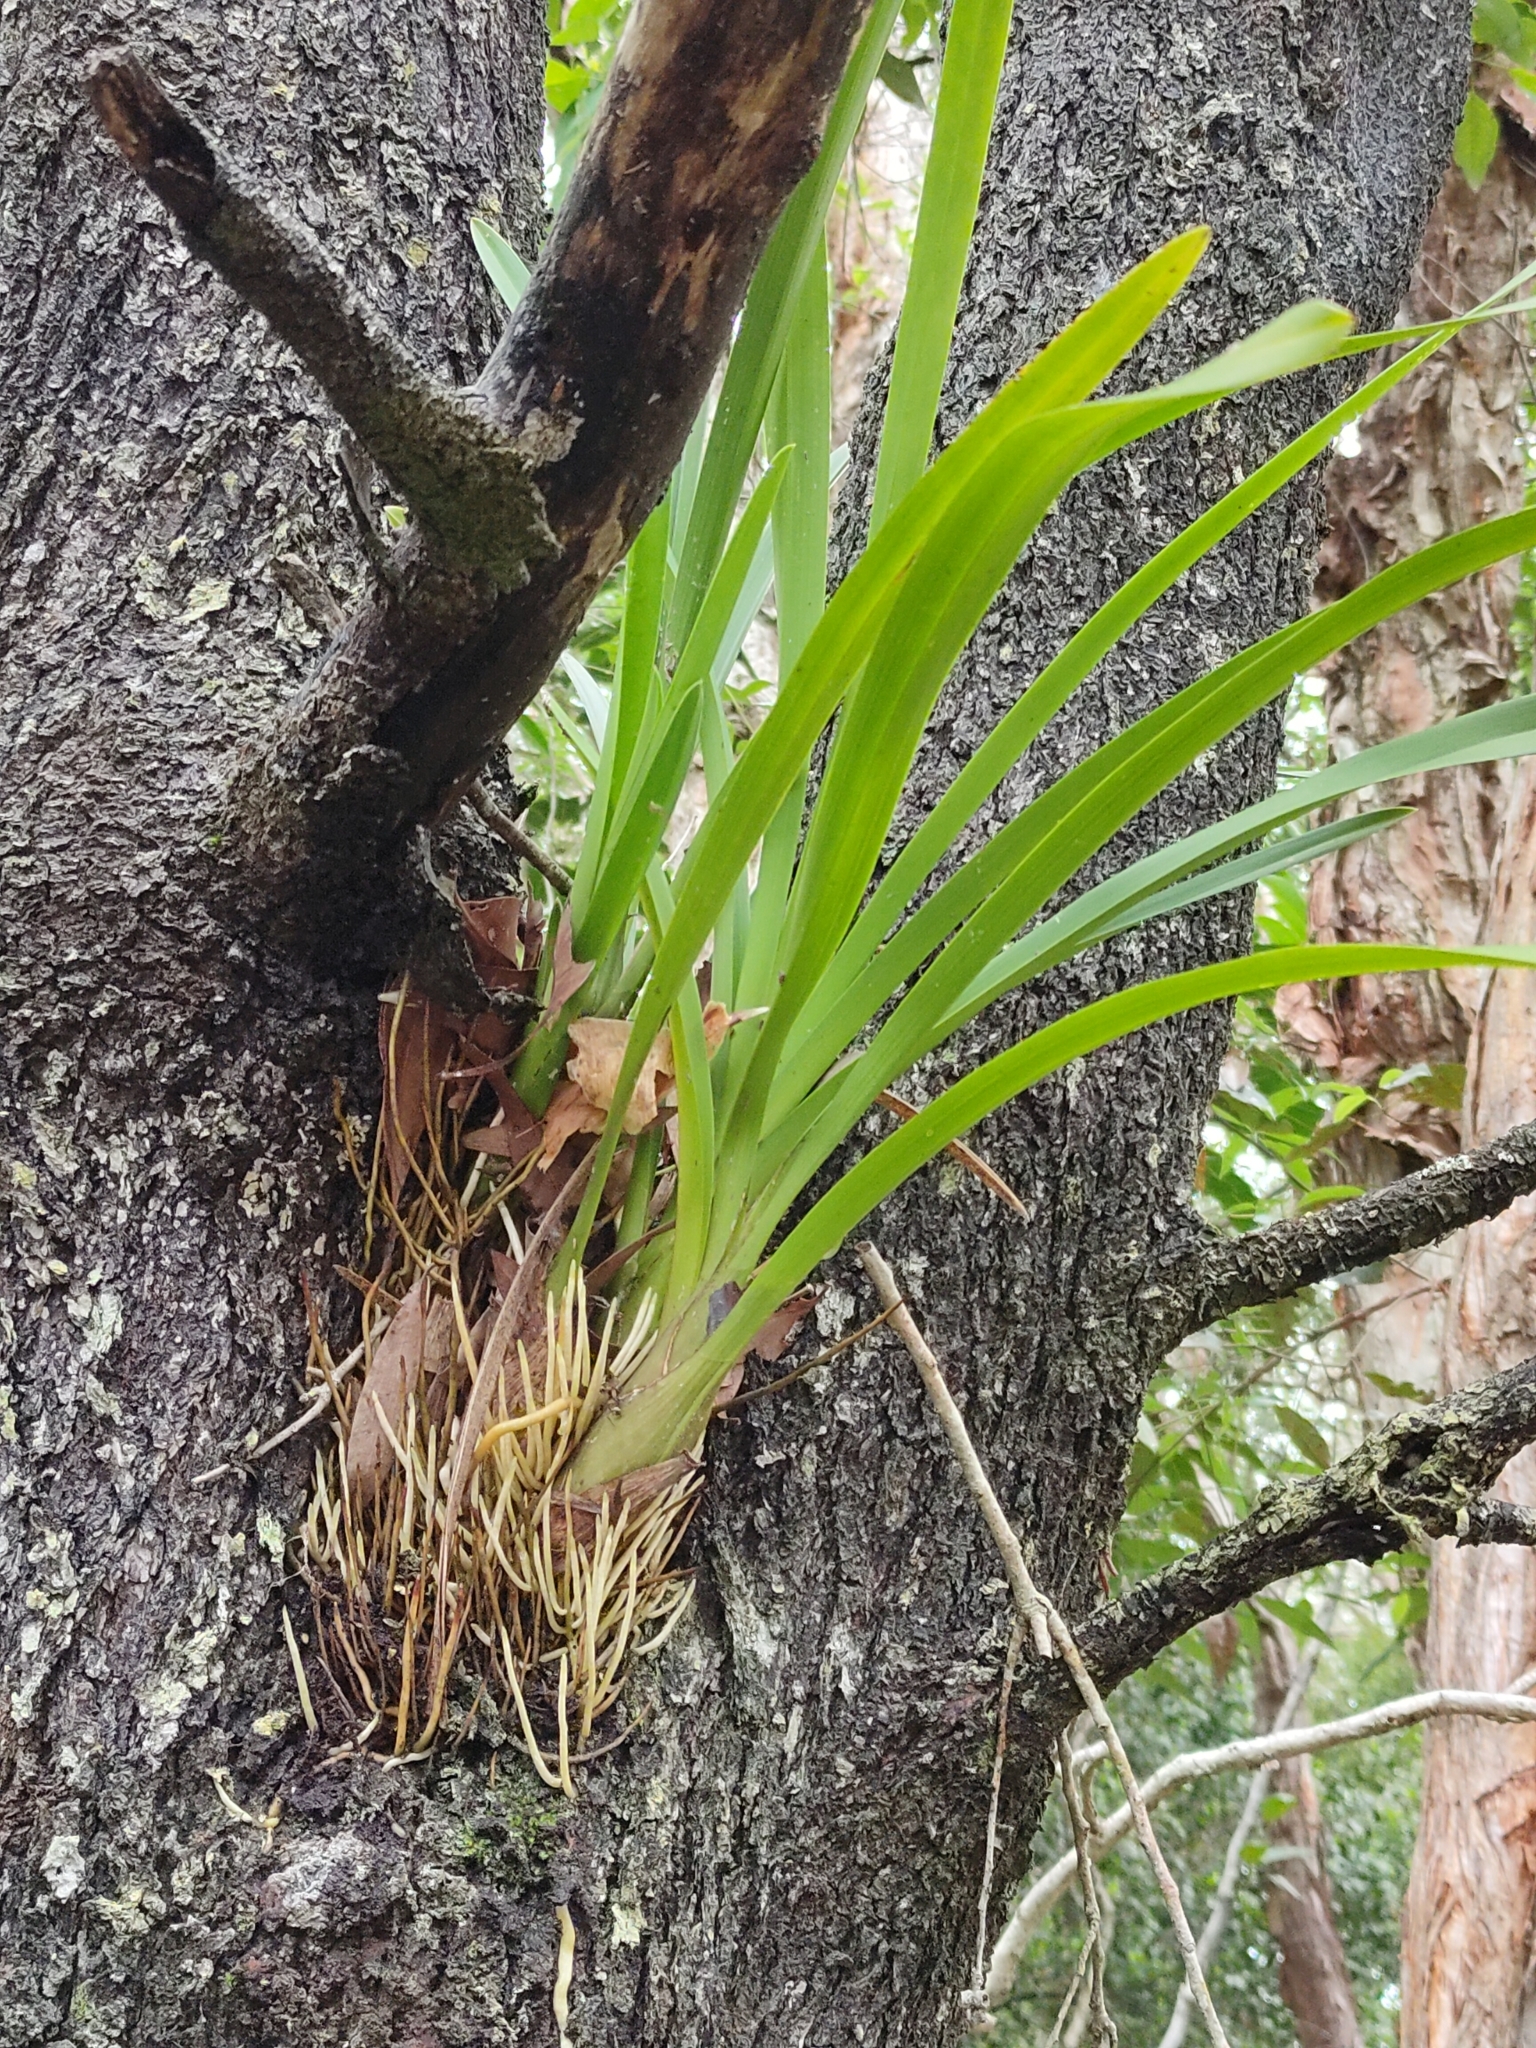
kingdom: Plantae
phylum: Tracheophyta
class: Liliopsida
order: Asparagales
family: Orchidaceae
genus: Cymbidium
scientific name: Cymbidium madidum
